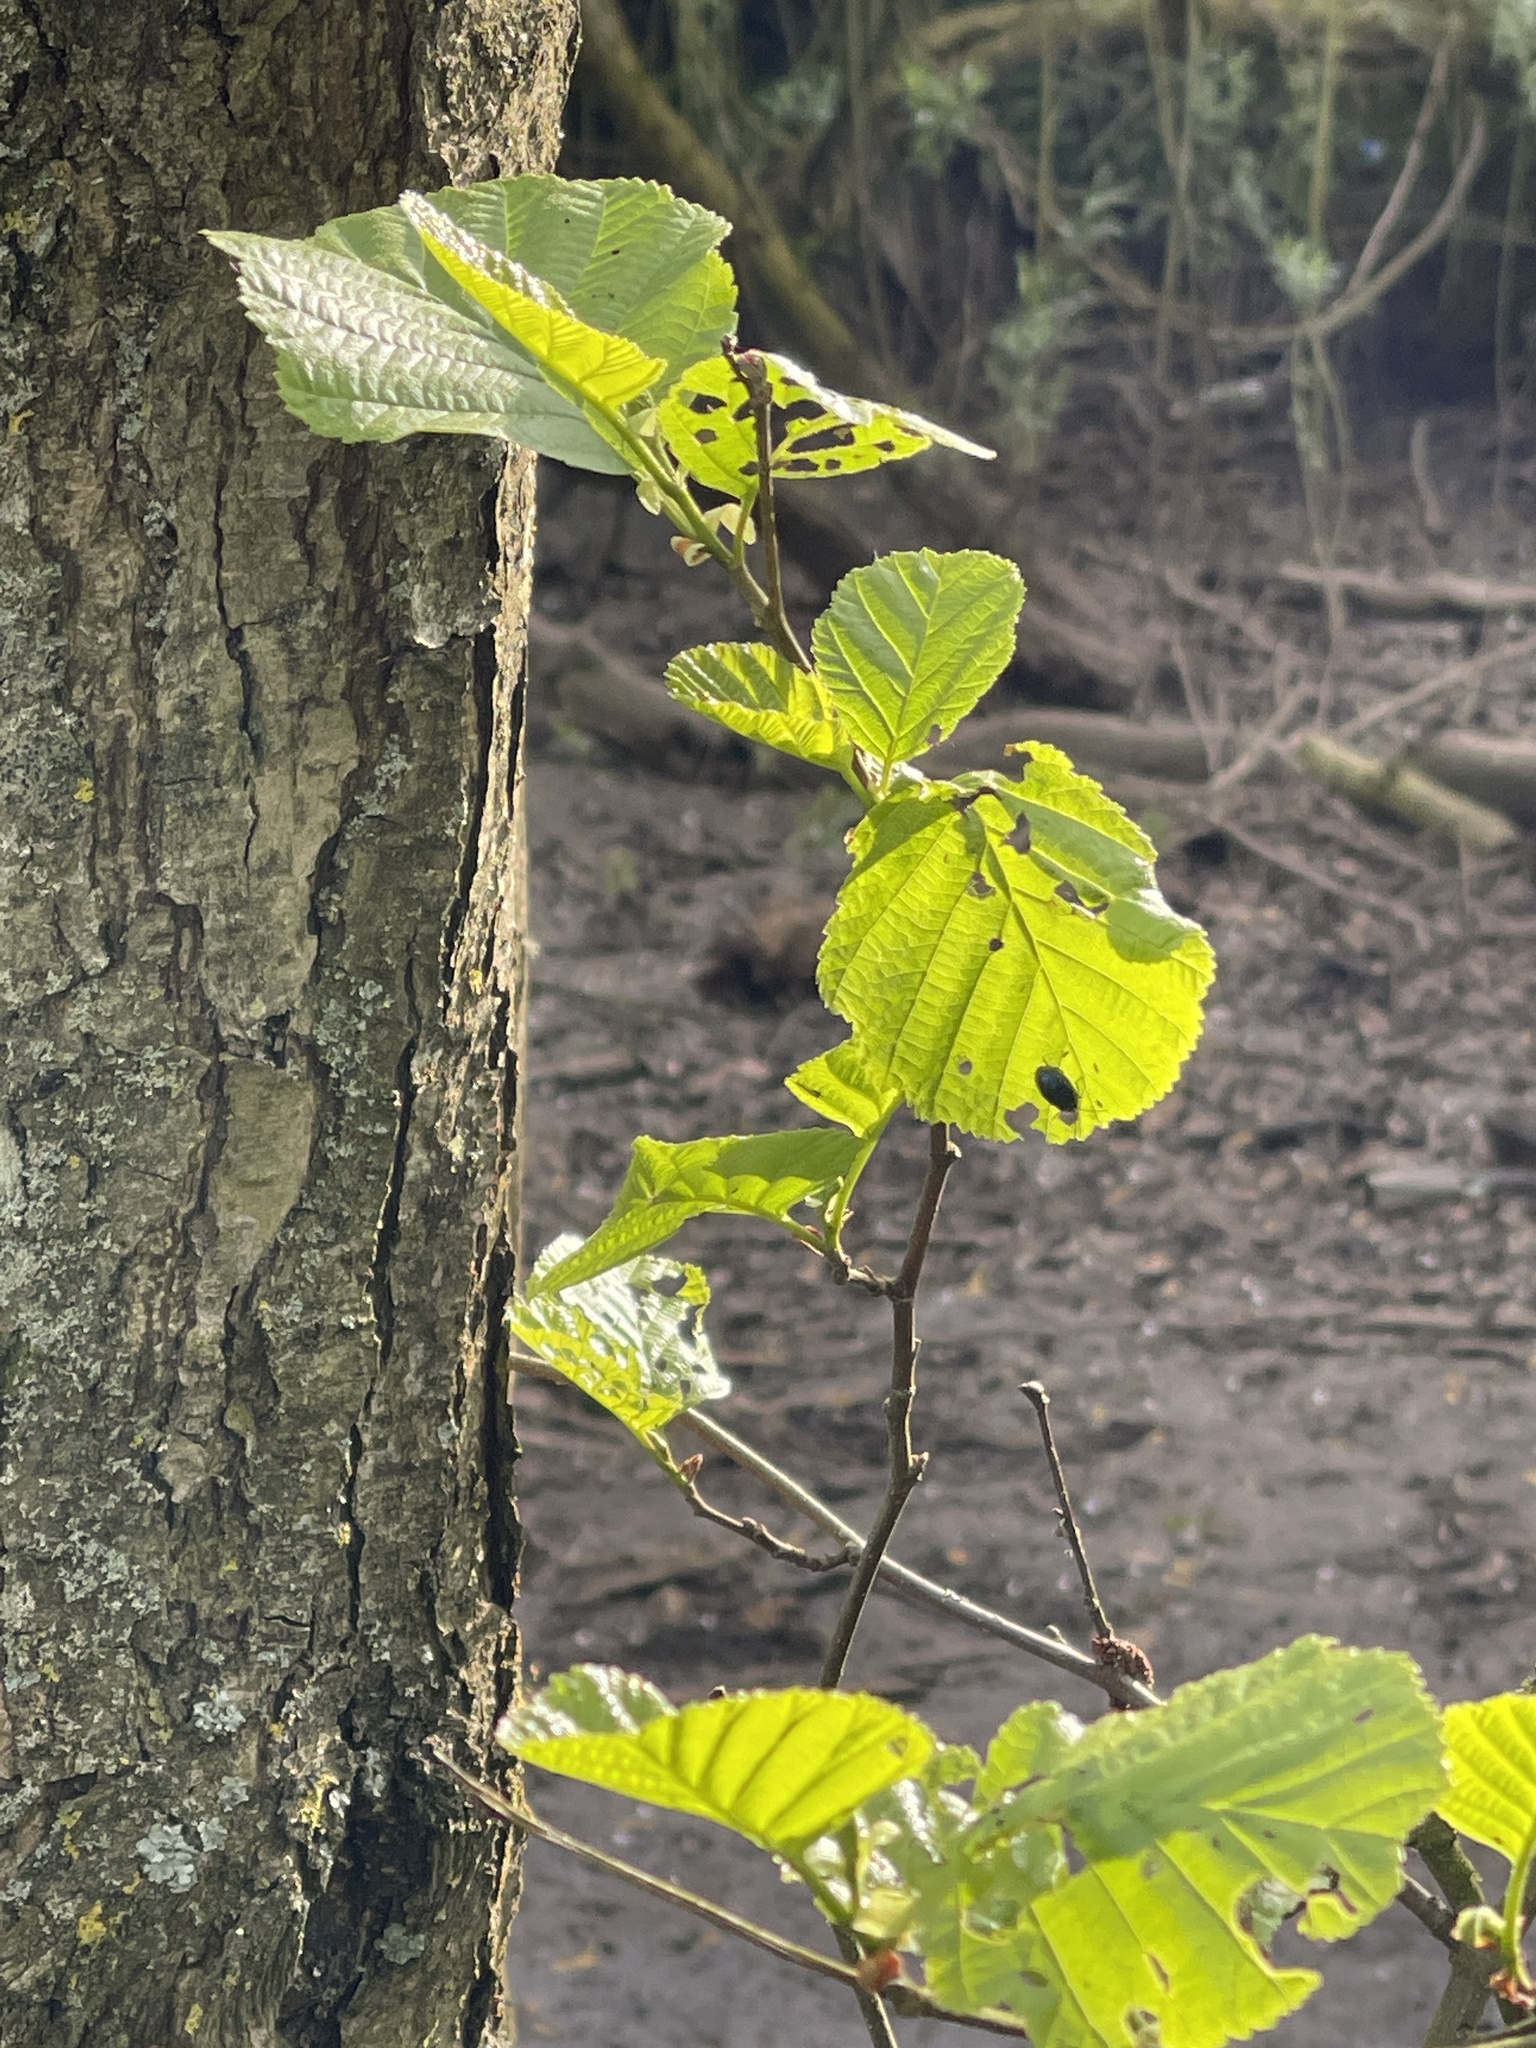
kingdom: Plantae
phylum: Tracheophyta
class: Magnoliopsida
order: Fagales
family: Betulaceae
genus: Alnus
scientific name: Alnus glutinosa
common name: Black alder
